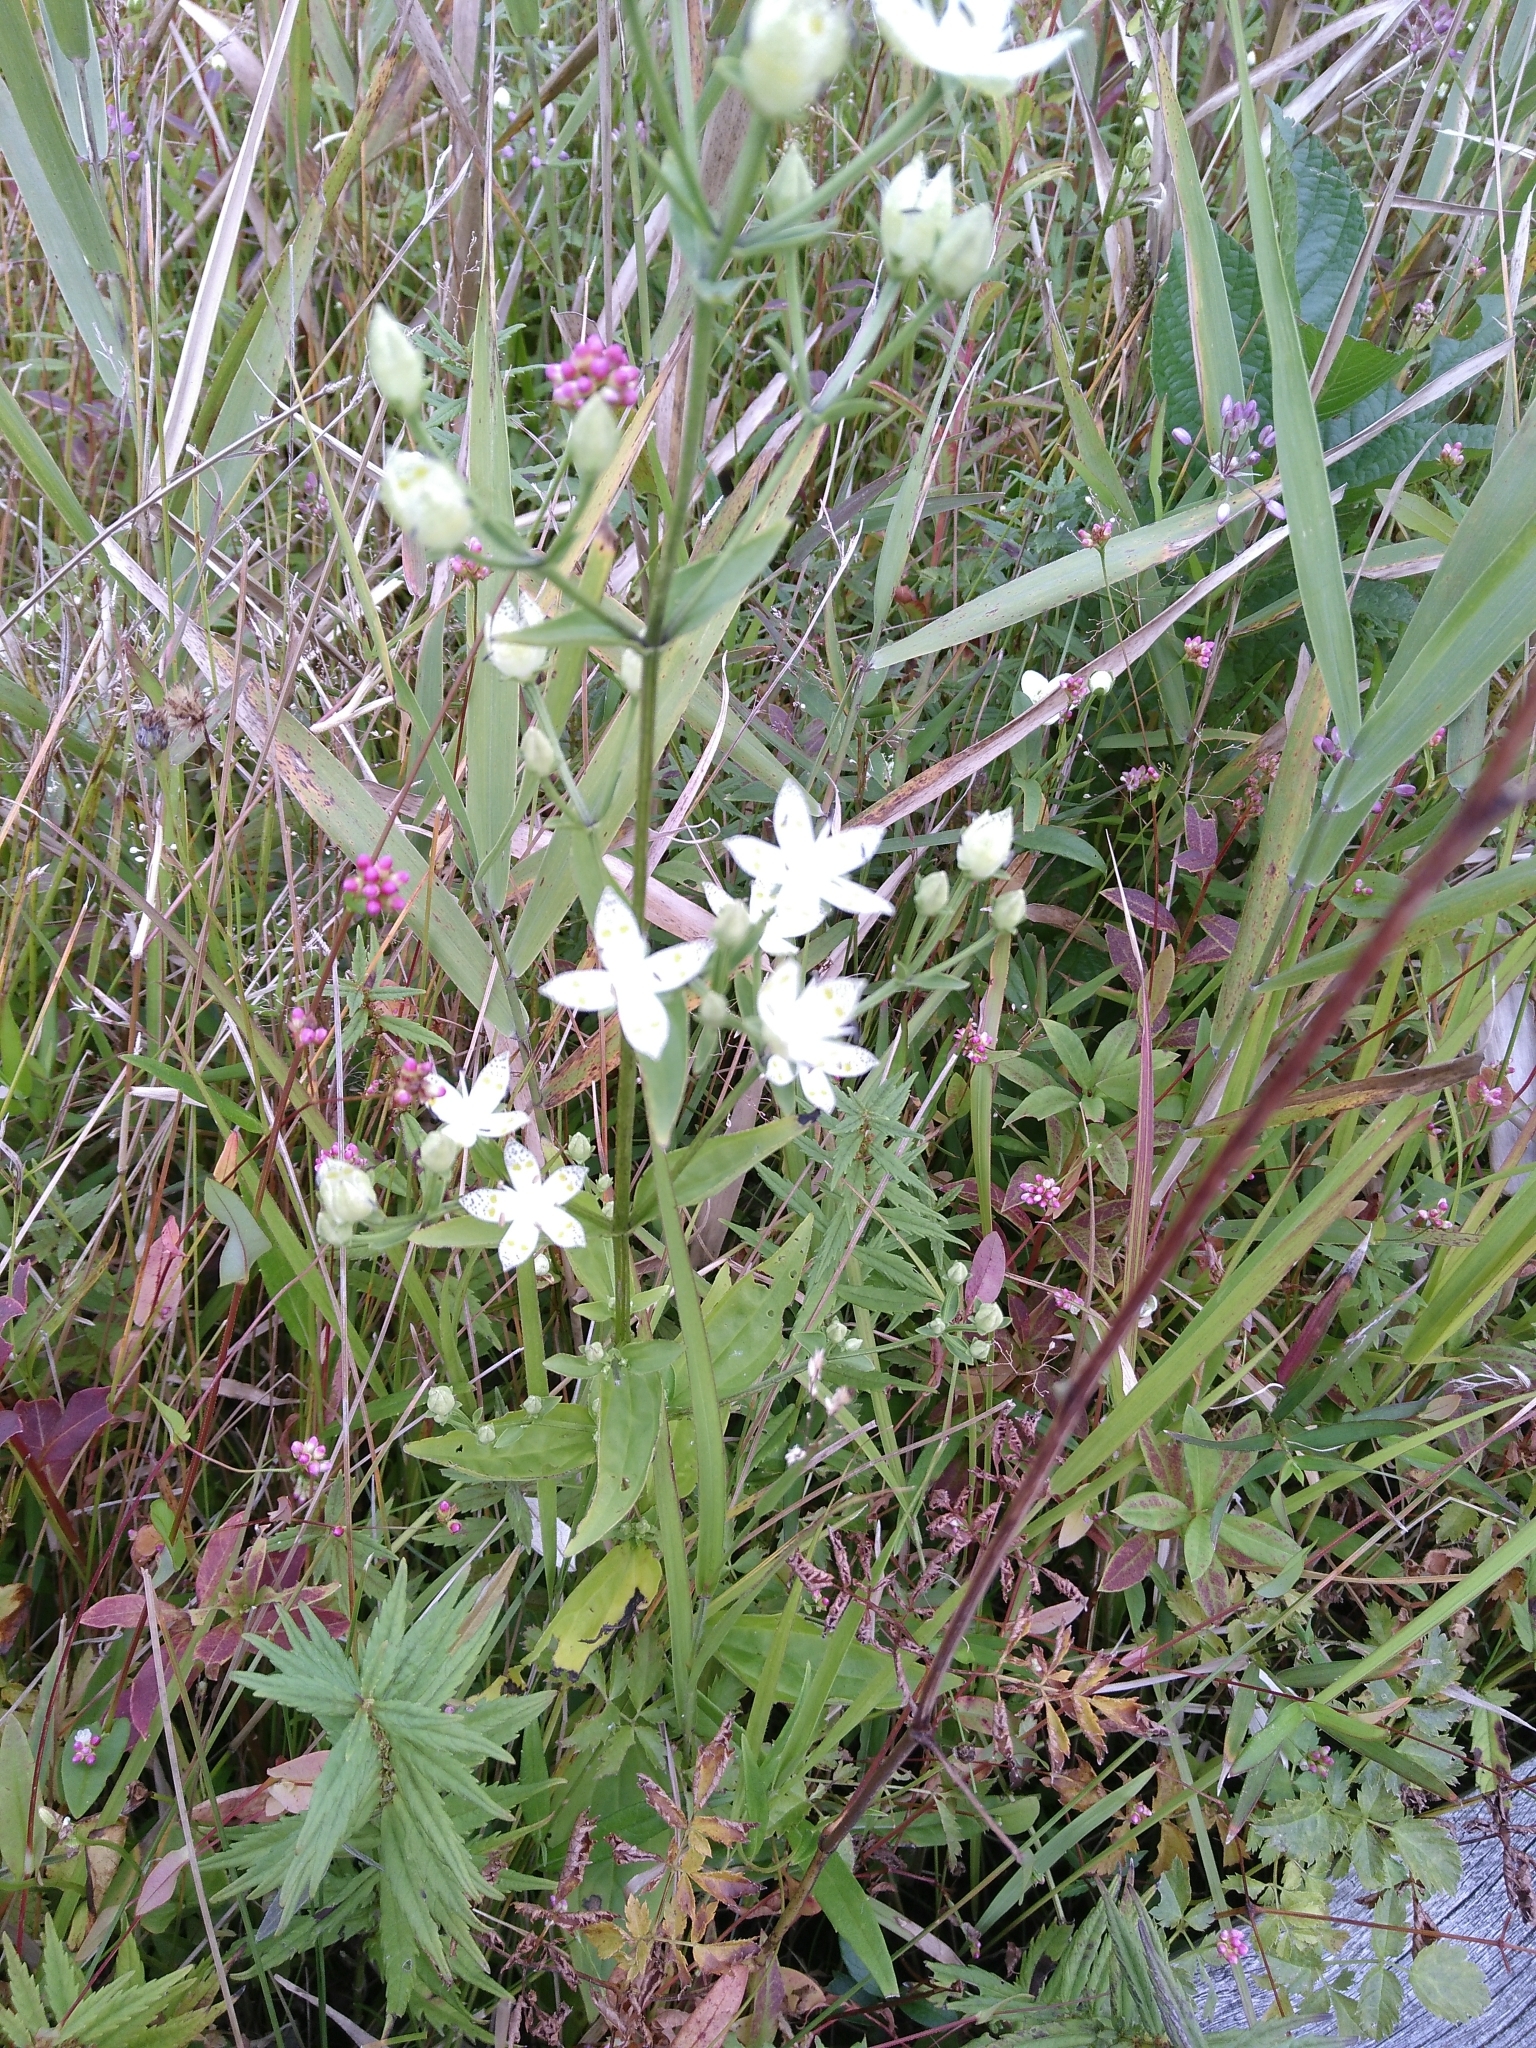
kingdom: Plantae
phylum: Tracheophyta
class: Magnoliopsida
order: Gentianales
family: Gentianaceae
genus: Swertia
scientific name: Swertia bimaculata
